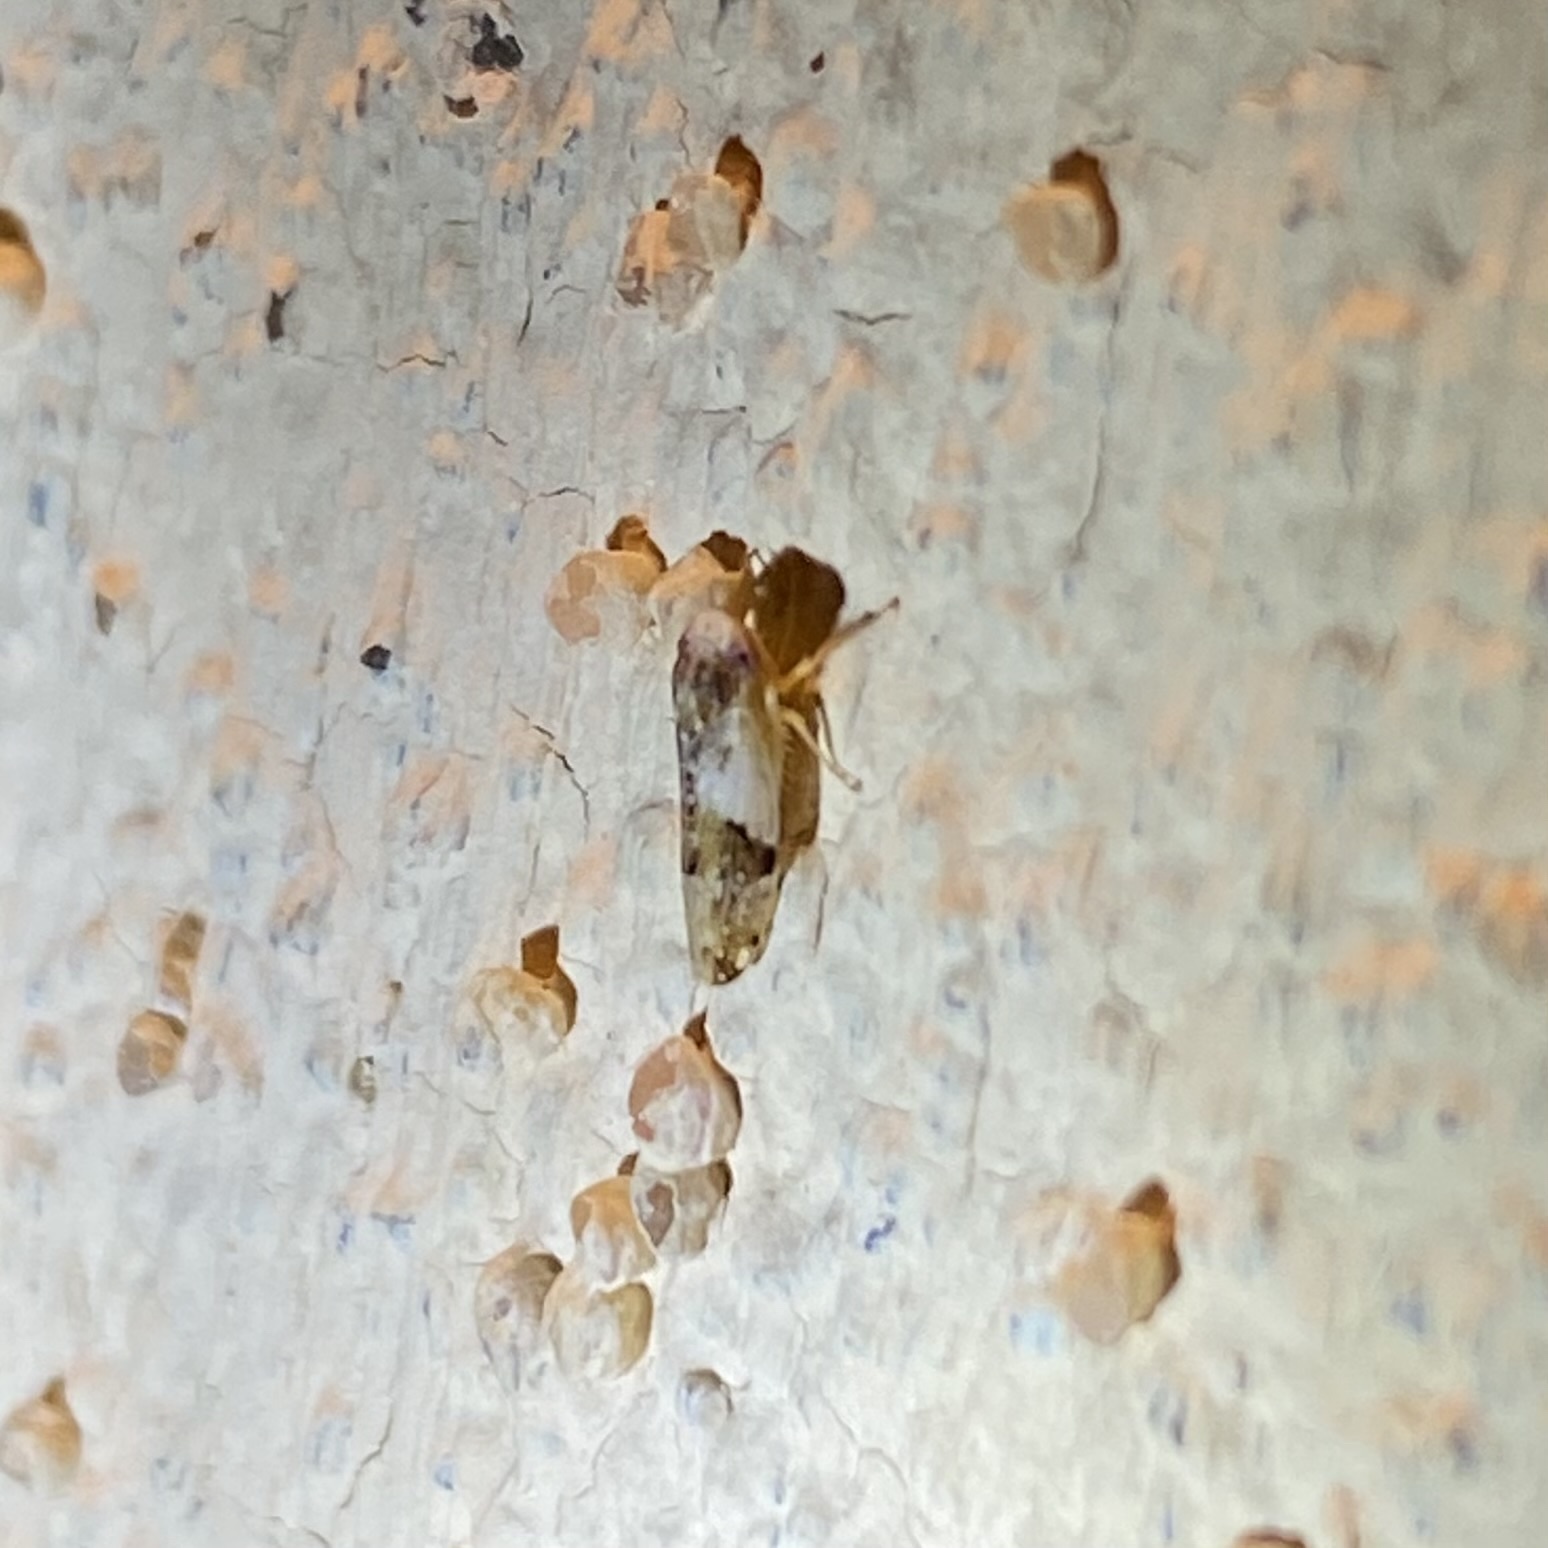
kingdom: Animalia
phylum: Arthropoda
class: Insecta
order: Hemiptera
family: Cicadellidae
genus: Norvellina
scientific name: Norvellina scitula
